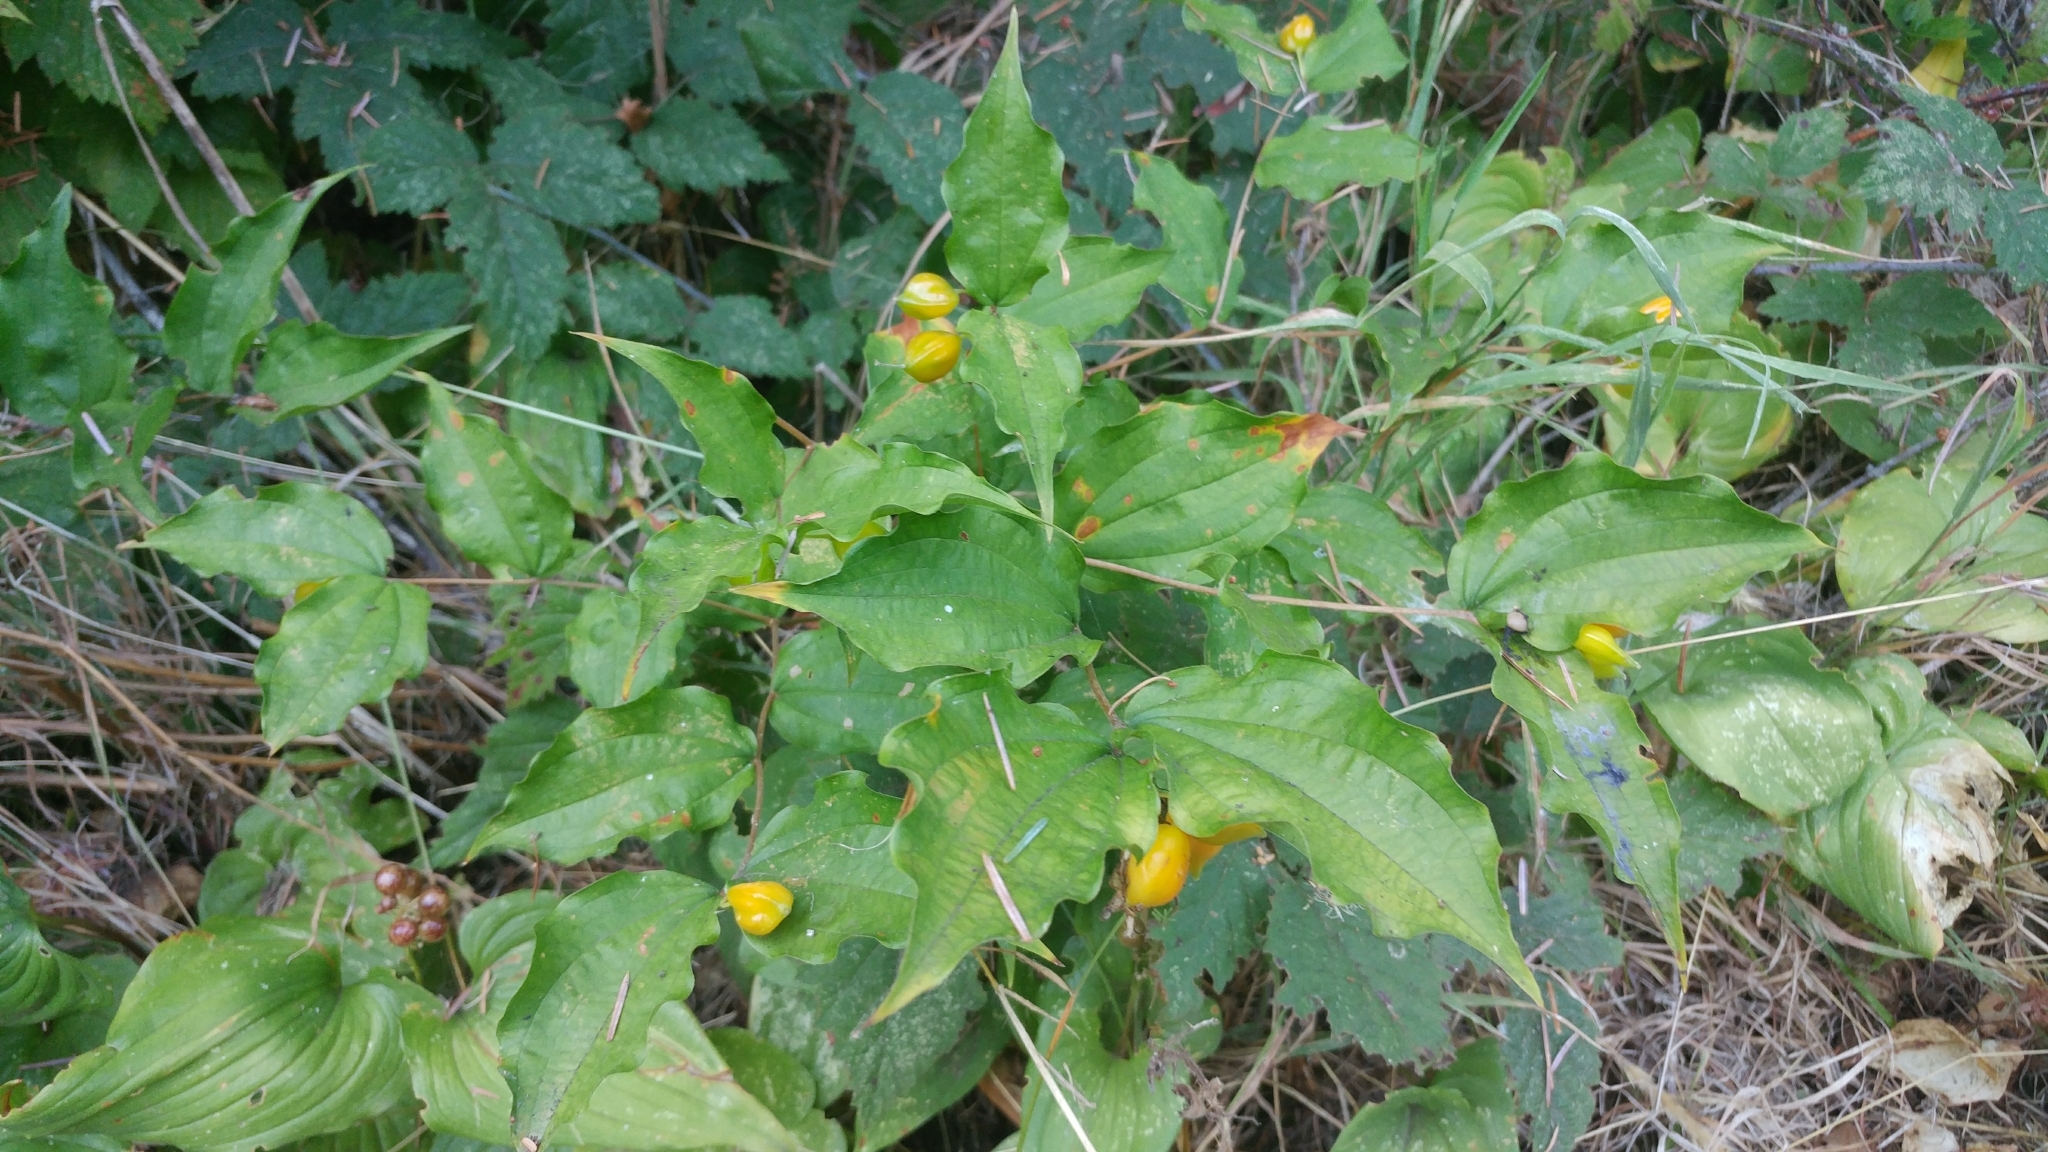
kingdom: Plantae
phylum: Tracheophyta
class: Liliopsida
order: Liliales
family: Liliaceae
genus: Prosartes
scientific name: Prosartes smithii
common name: Fairy-lantern
